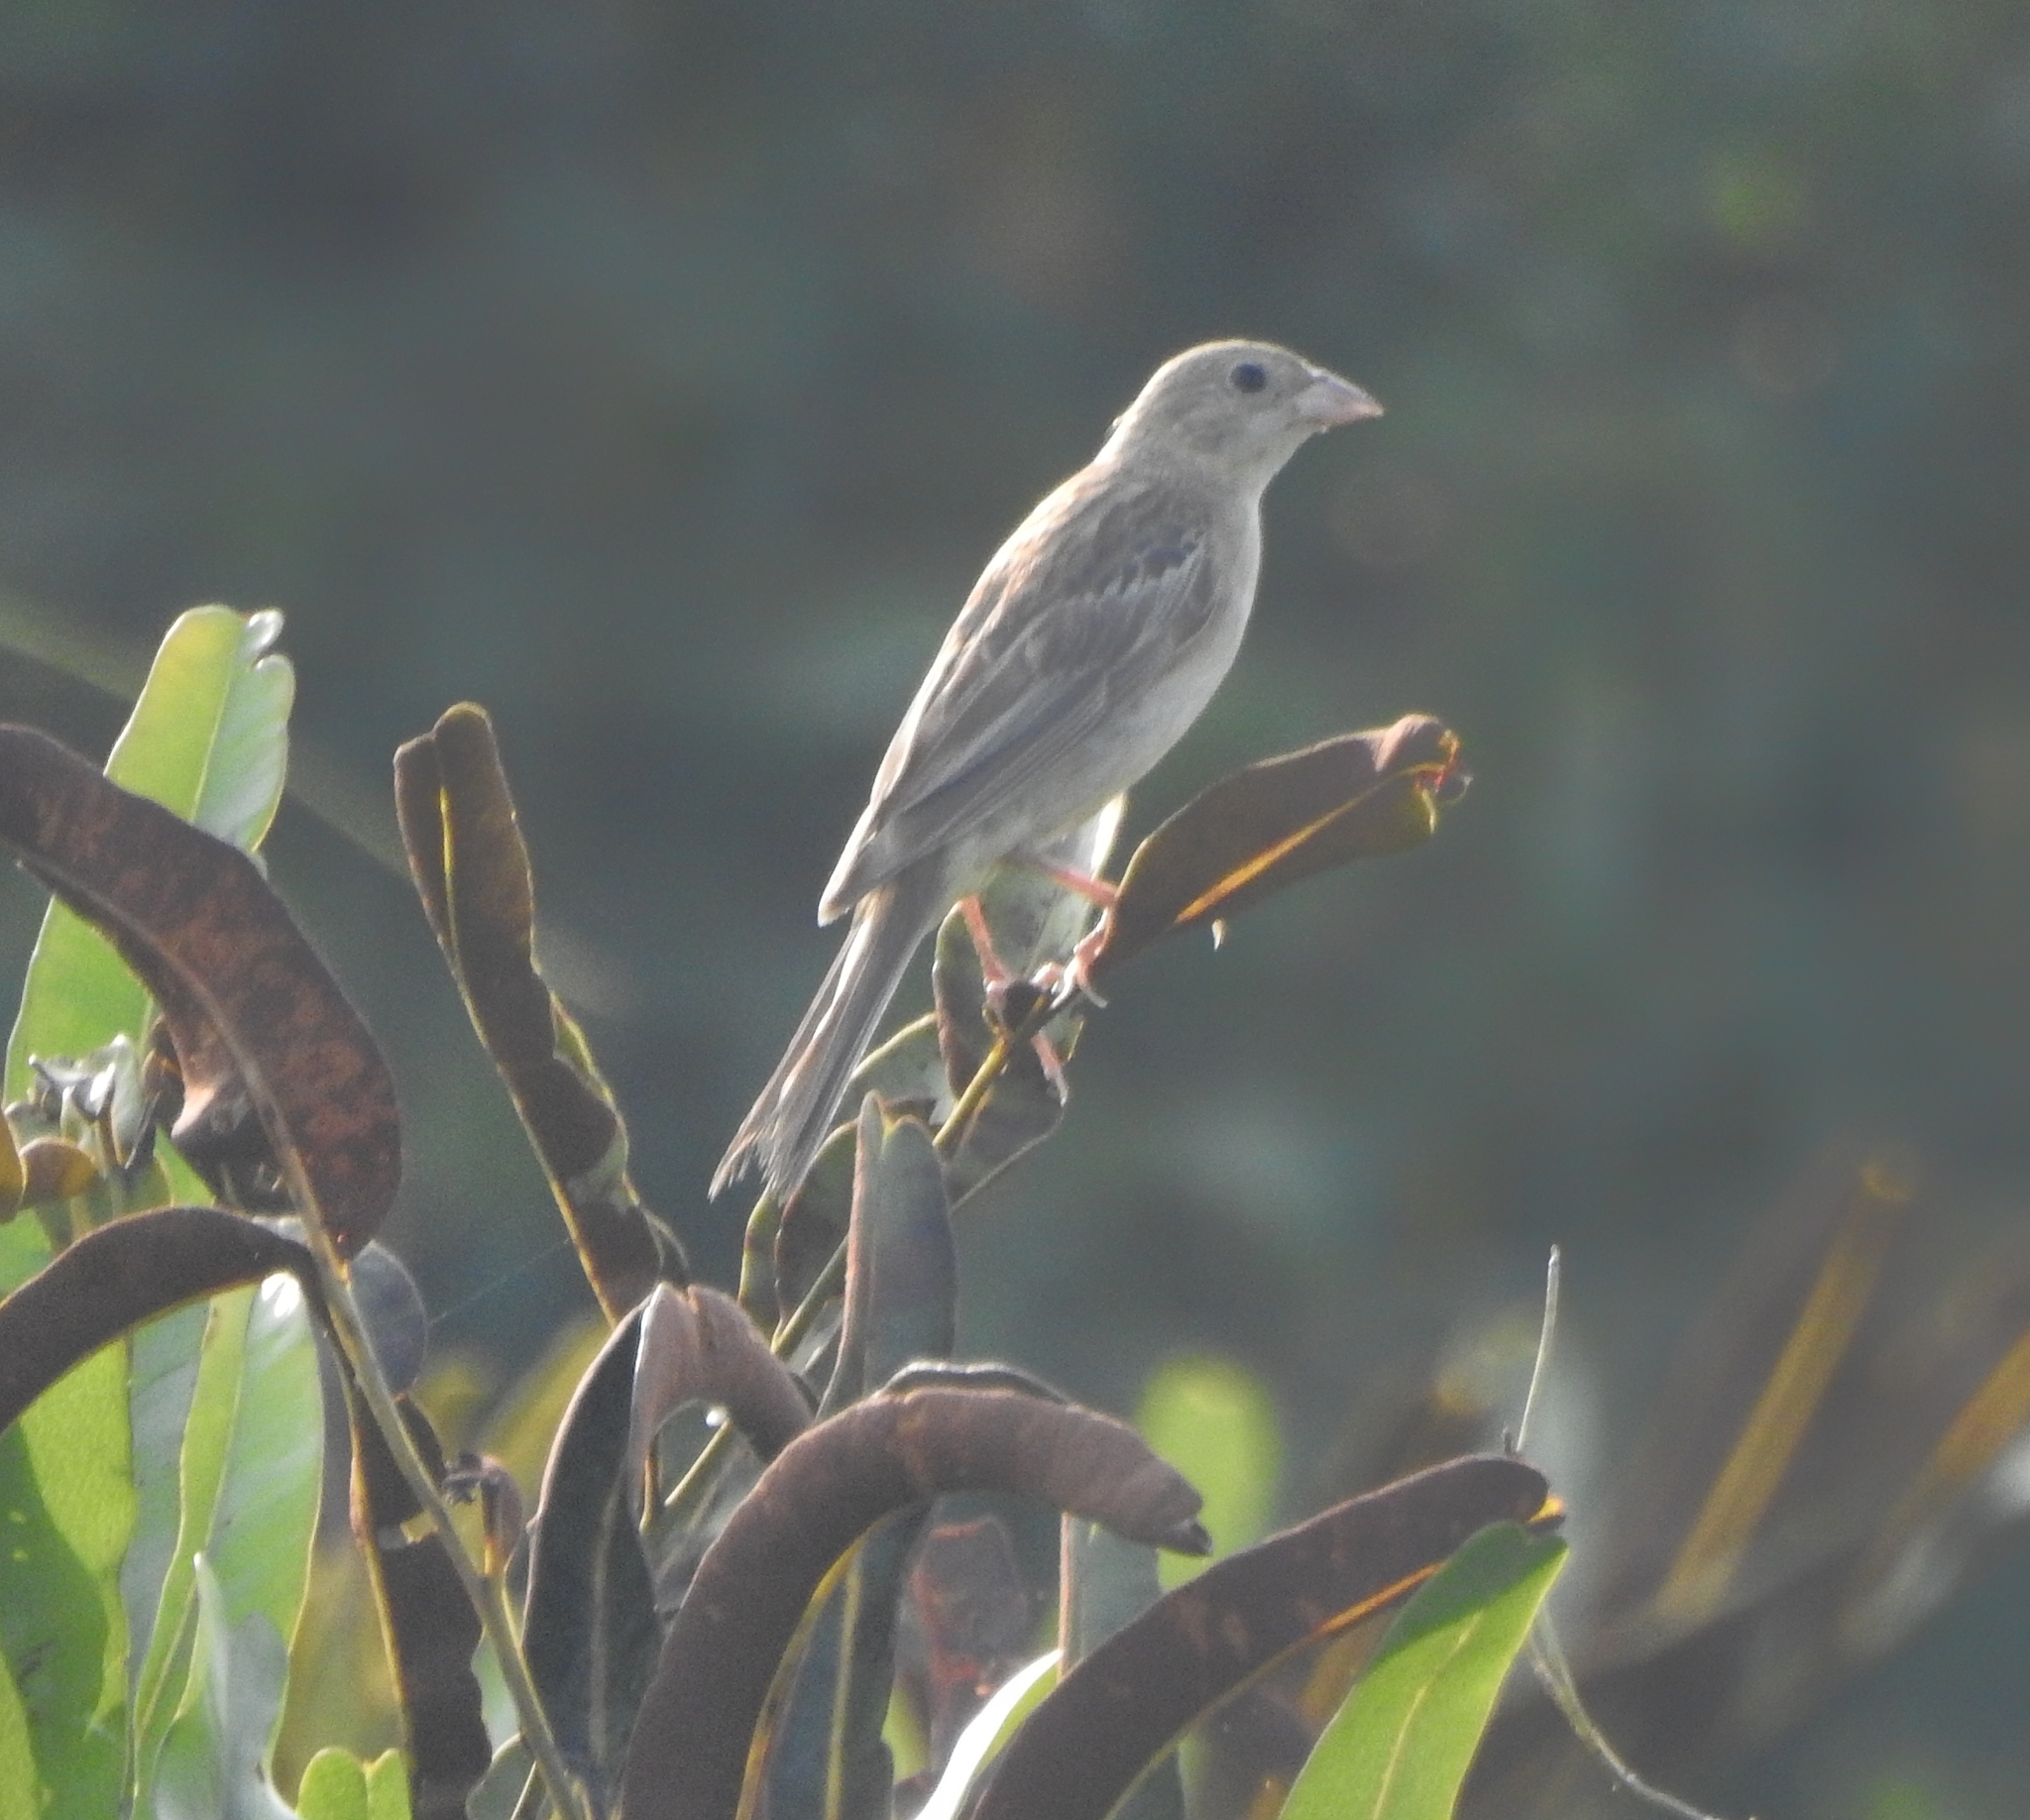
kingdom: Animalia
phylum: Chordata
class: Aves
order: Passeriformes
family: Emberizidae
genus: Emberiza
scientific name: Emberiza melanocephala
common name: Black-headed bunting
